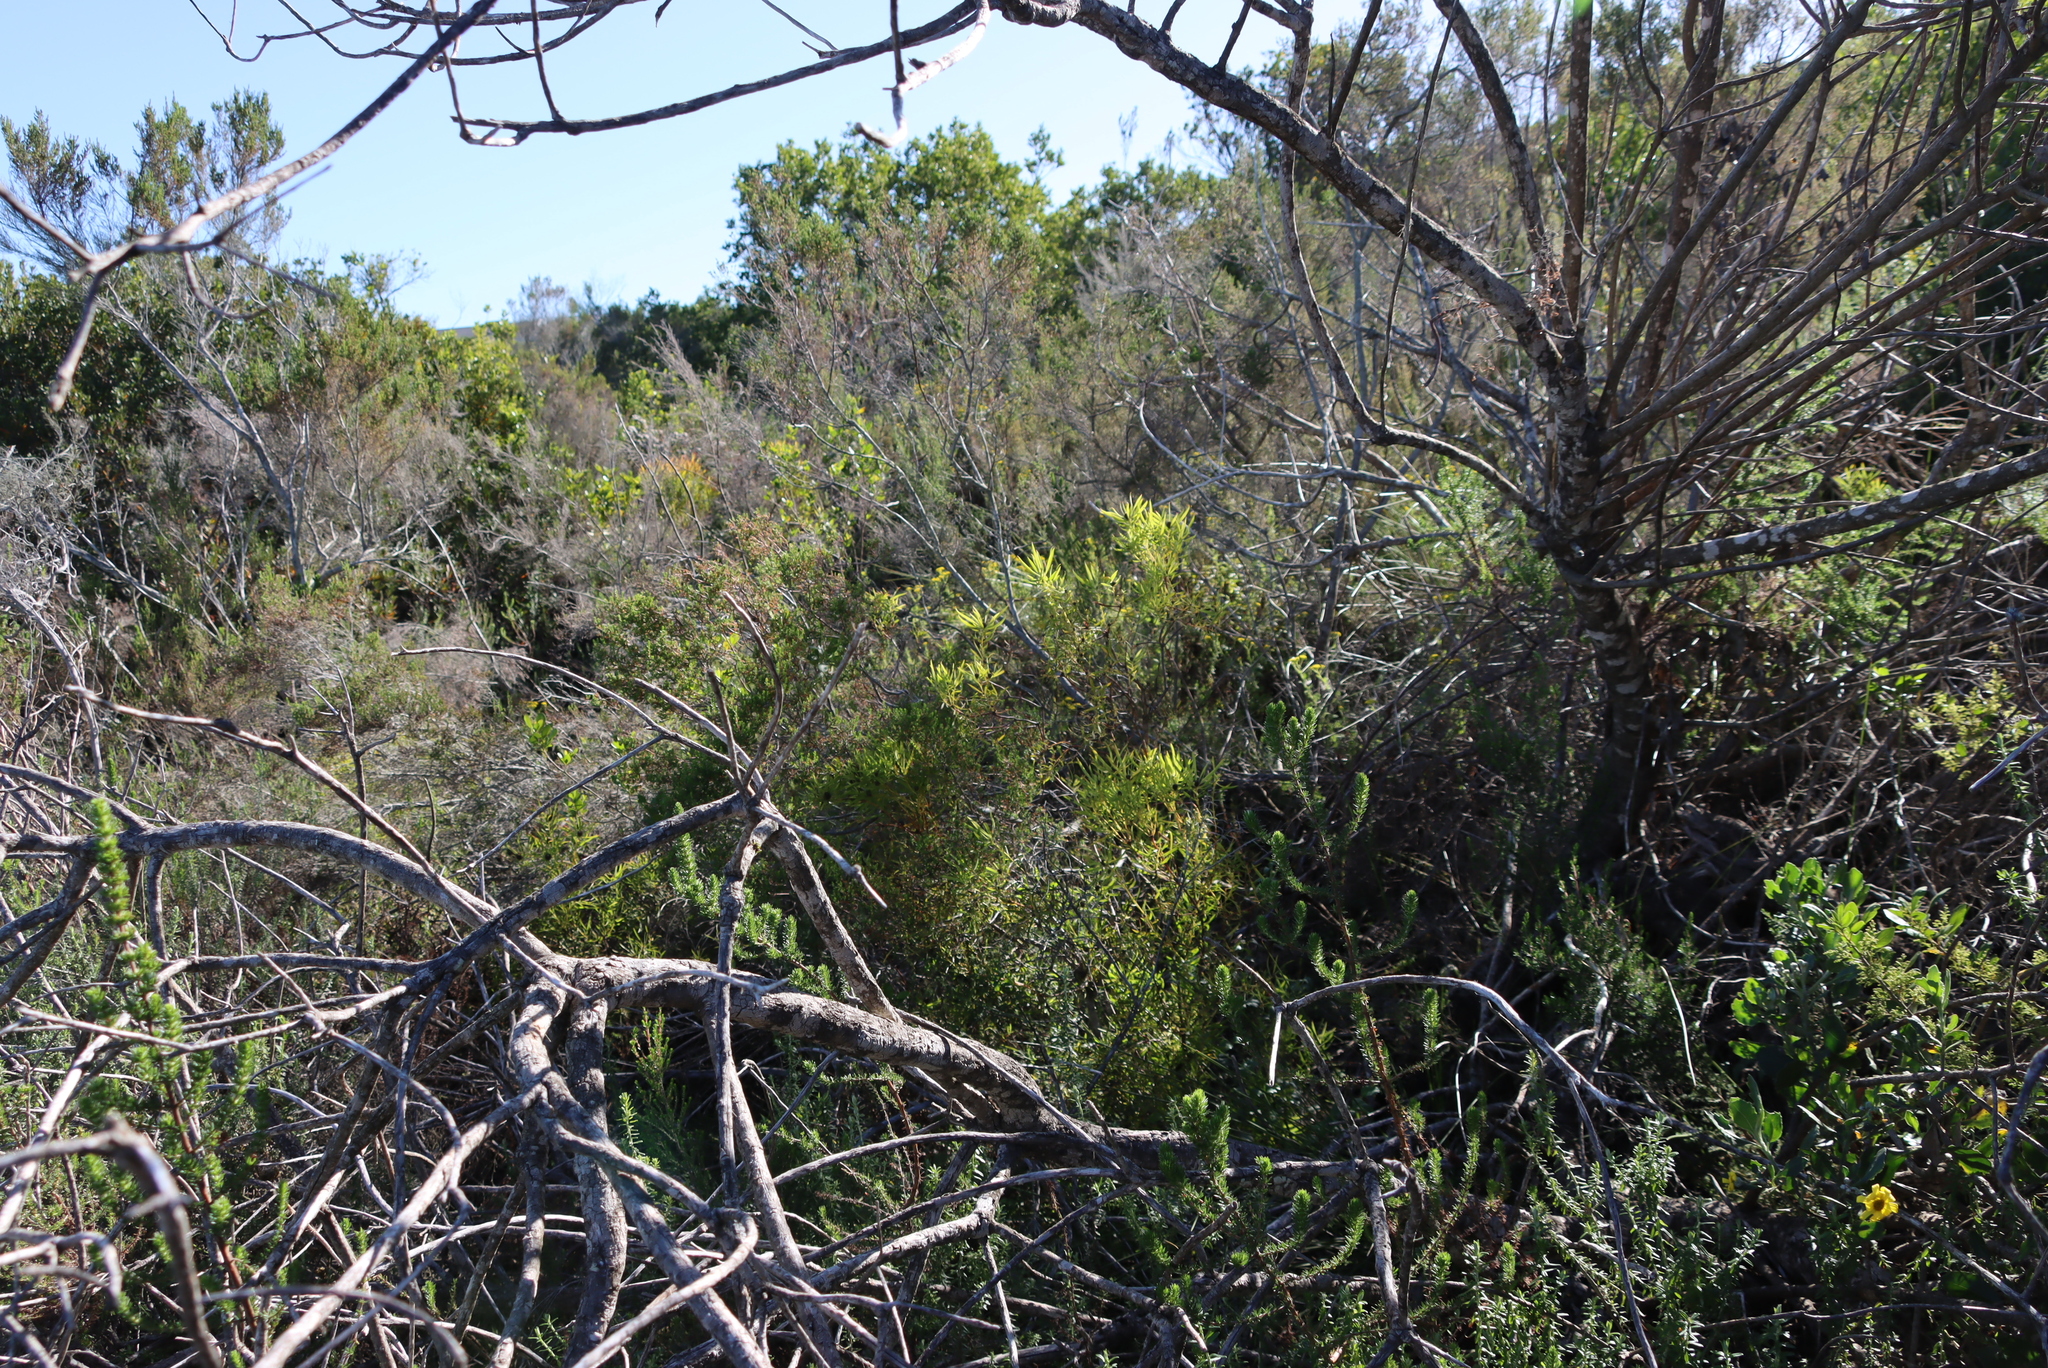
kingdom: Plantae
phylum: Tracheophyta
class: Magnoliopsida
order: Proteales
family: Proteaceae
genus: Leucadendron
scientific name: Leucadendron salignum
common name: Common sunshine conebush
